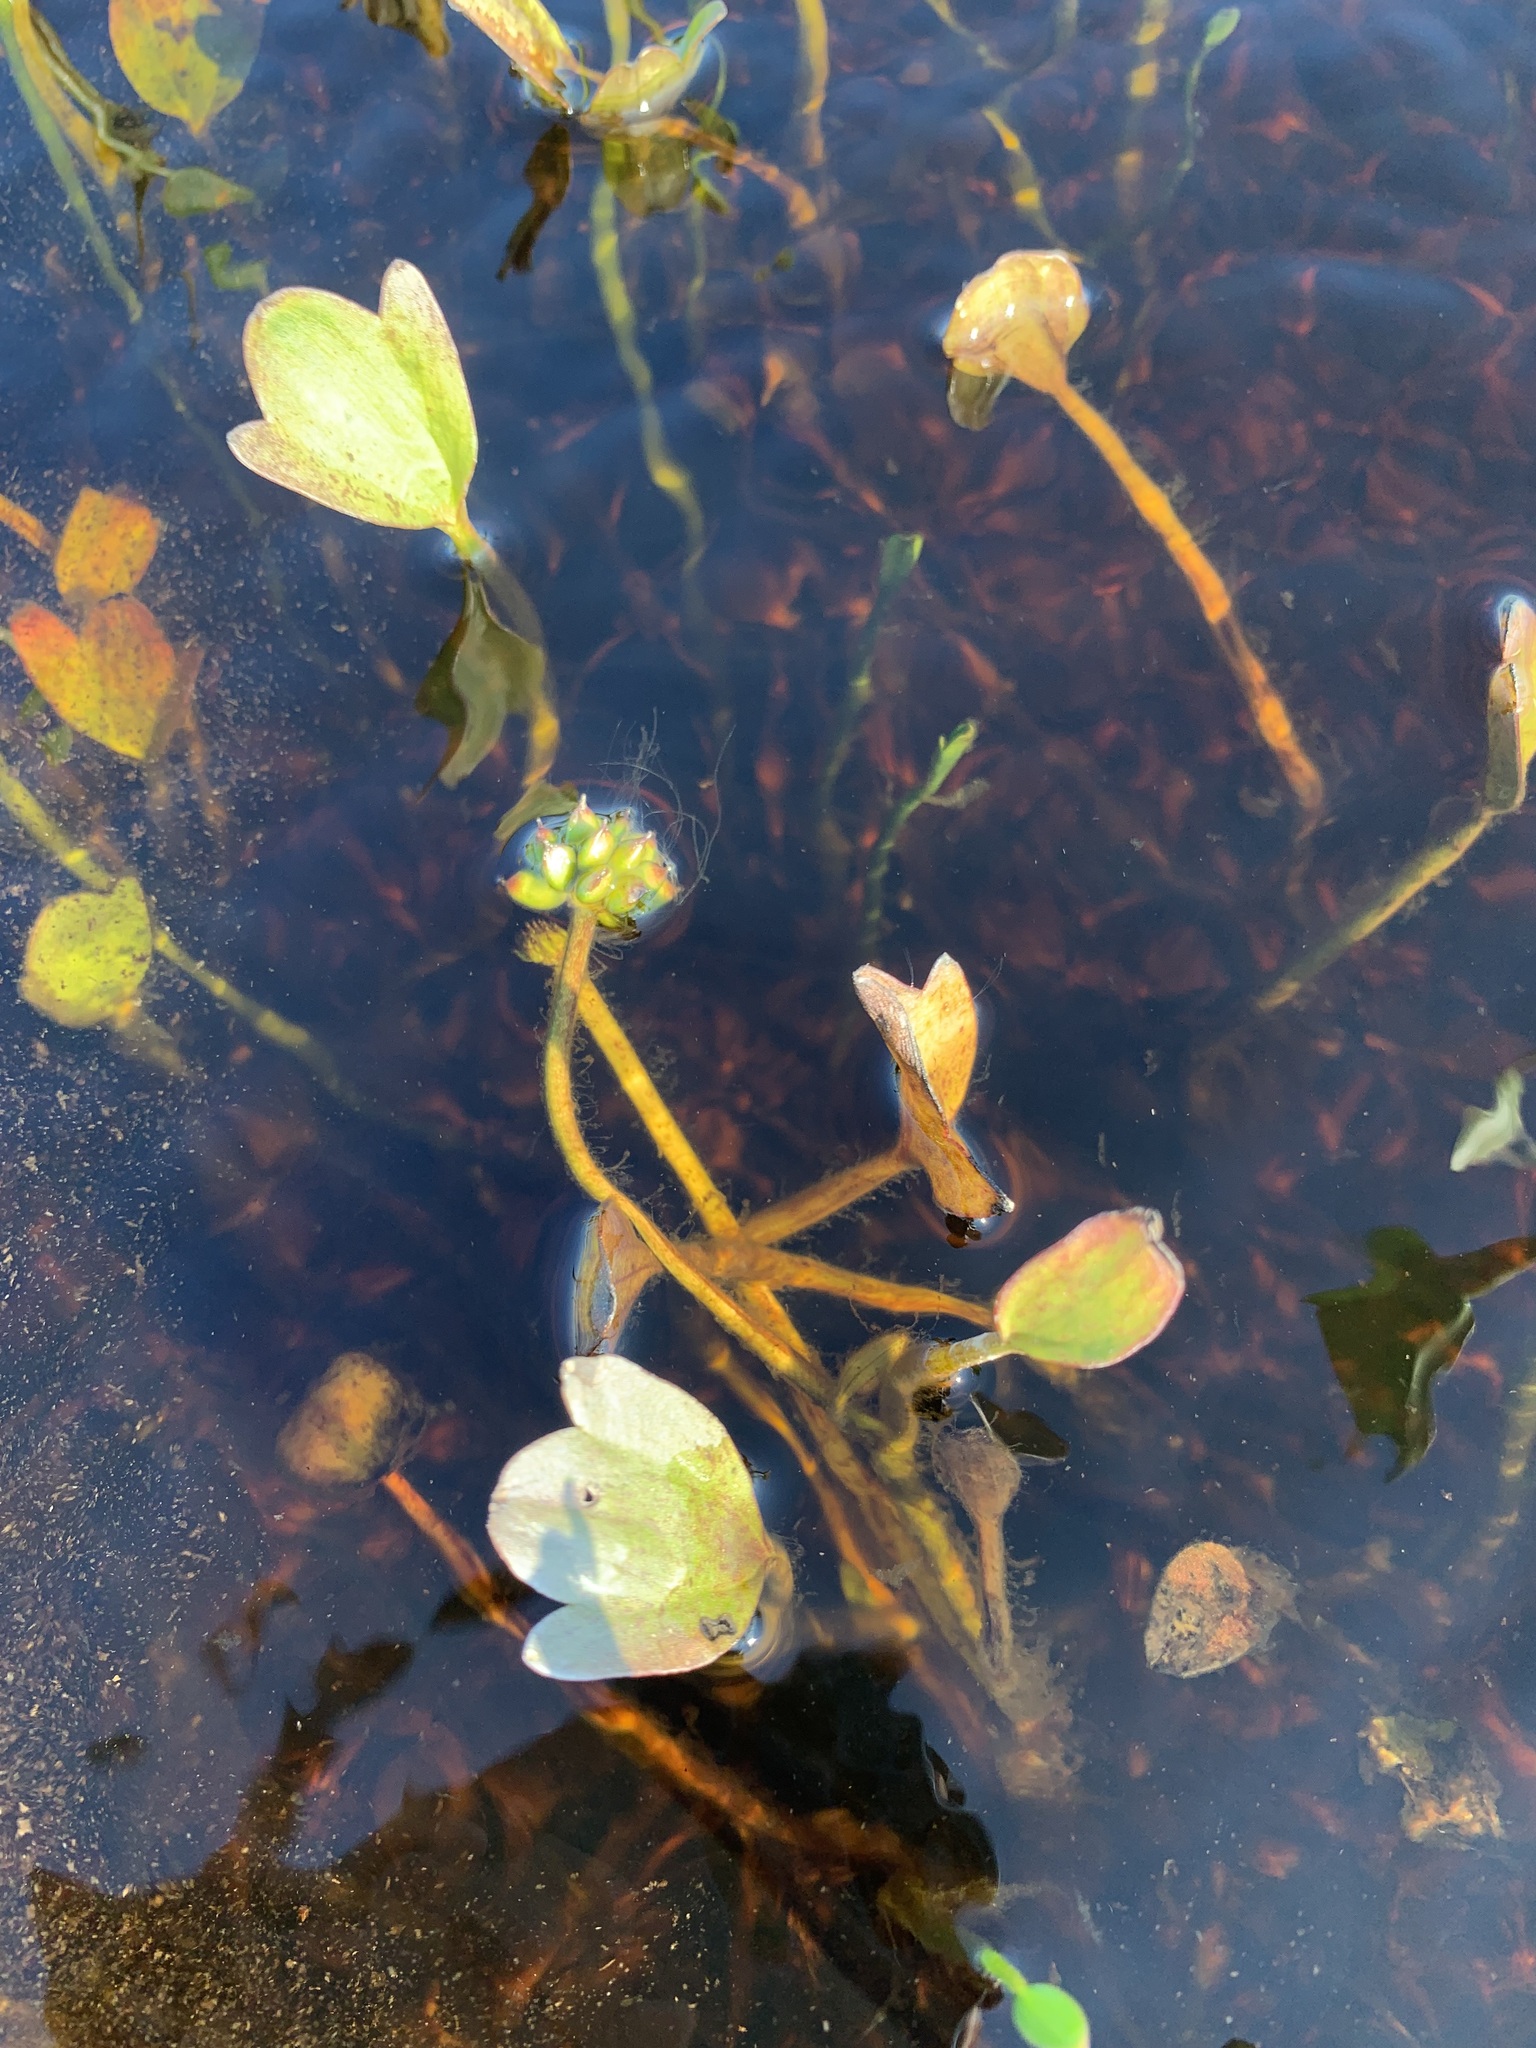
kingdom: Plantae
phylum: Tracheophyta
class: Magnoliopsida
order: Ranunculales
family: Ranunculaceae
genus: Coptidium
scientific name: Coptidium pallasii
